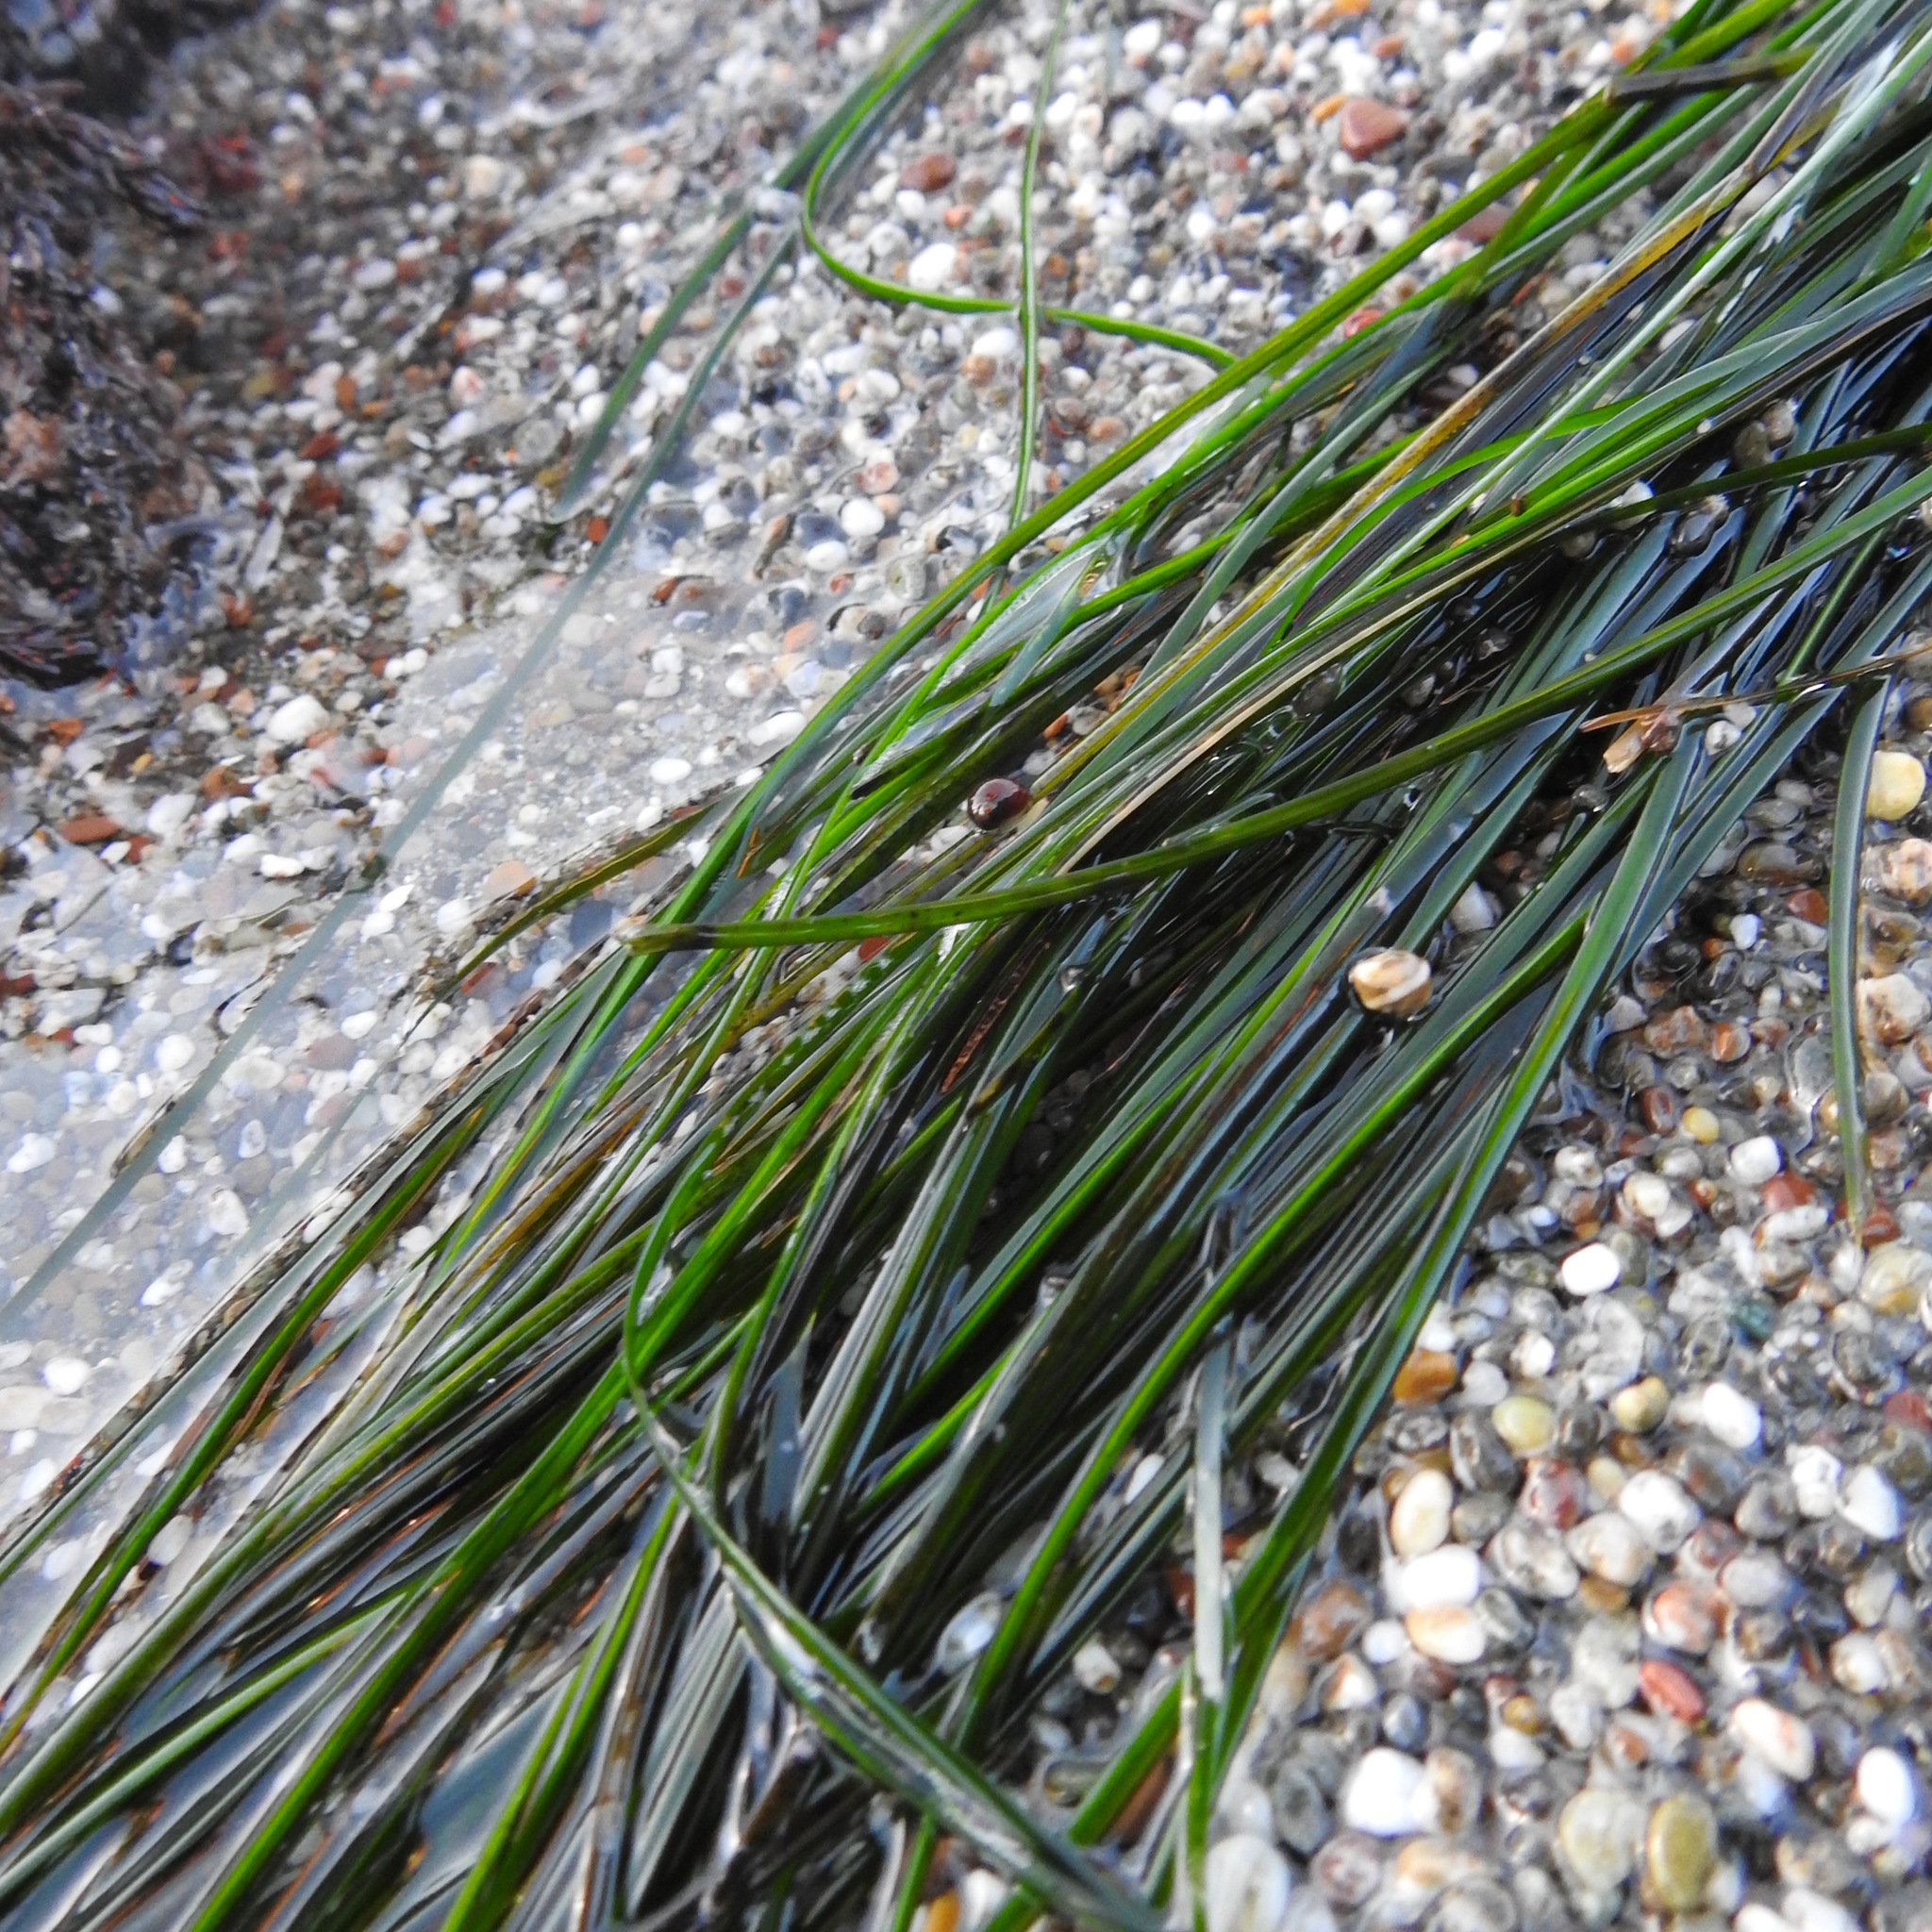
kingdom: Plantae
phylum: Tracheophyta
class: Liliopsida
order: Alismatales
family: Zosteraceae
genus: Phyllospadix
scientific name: Phyllospadix torreyi
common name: Surfgrass
